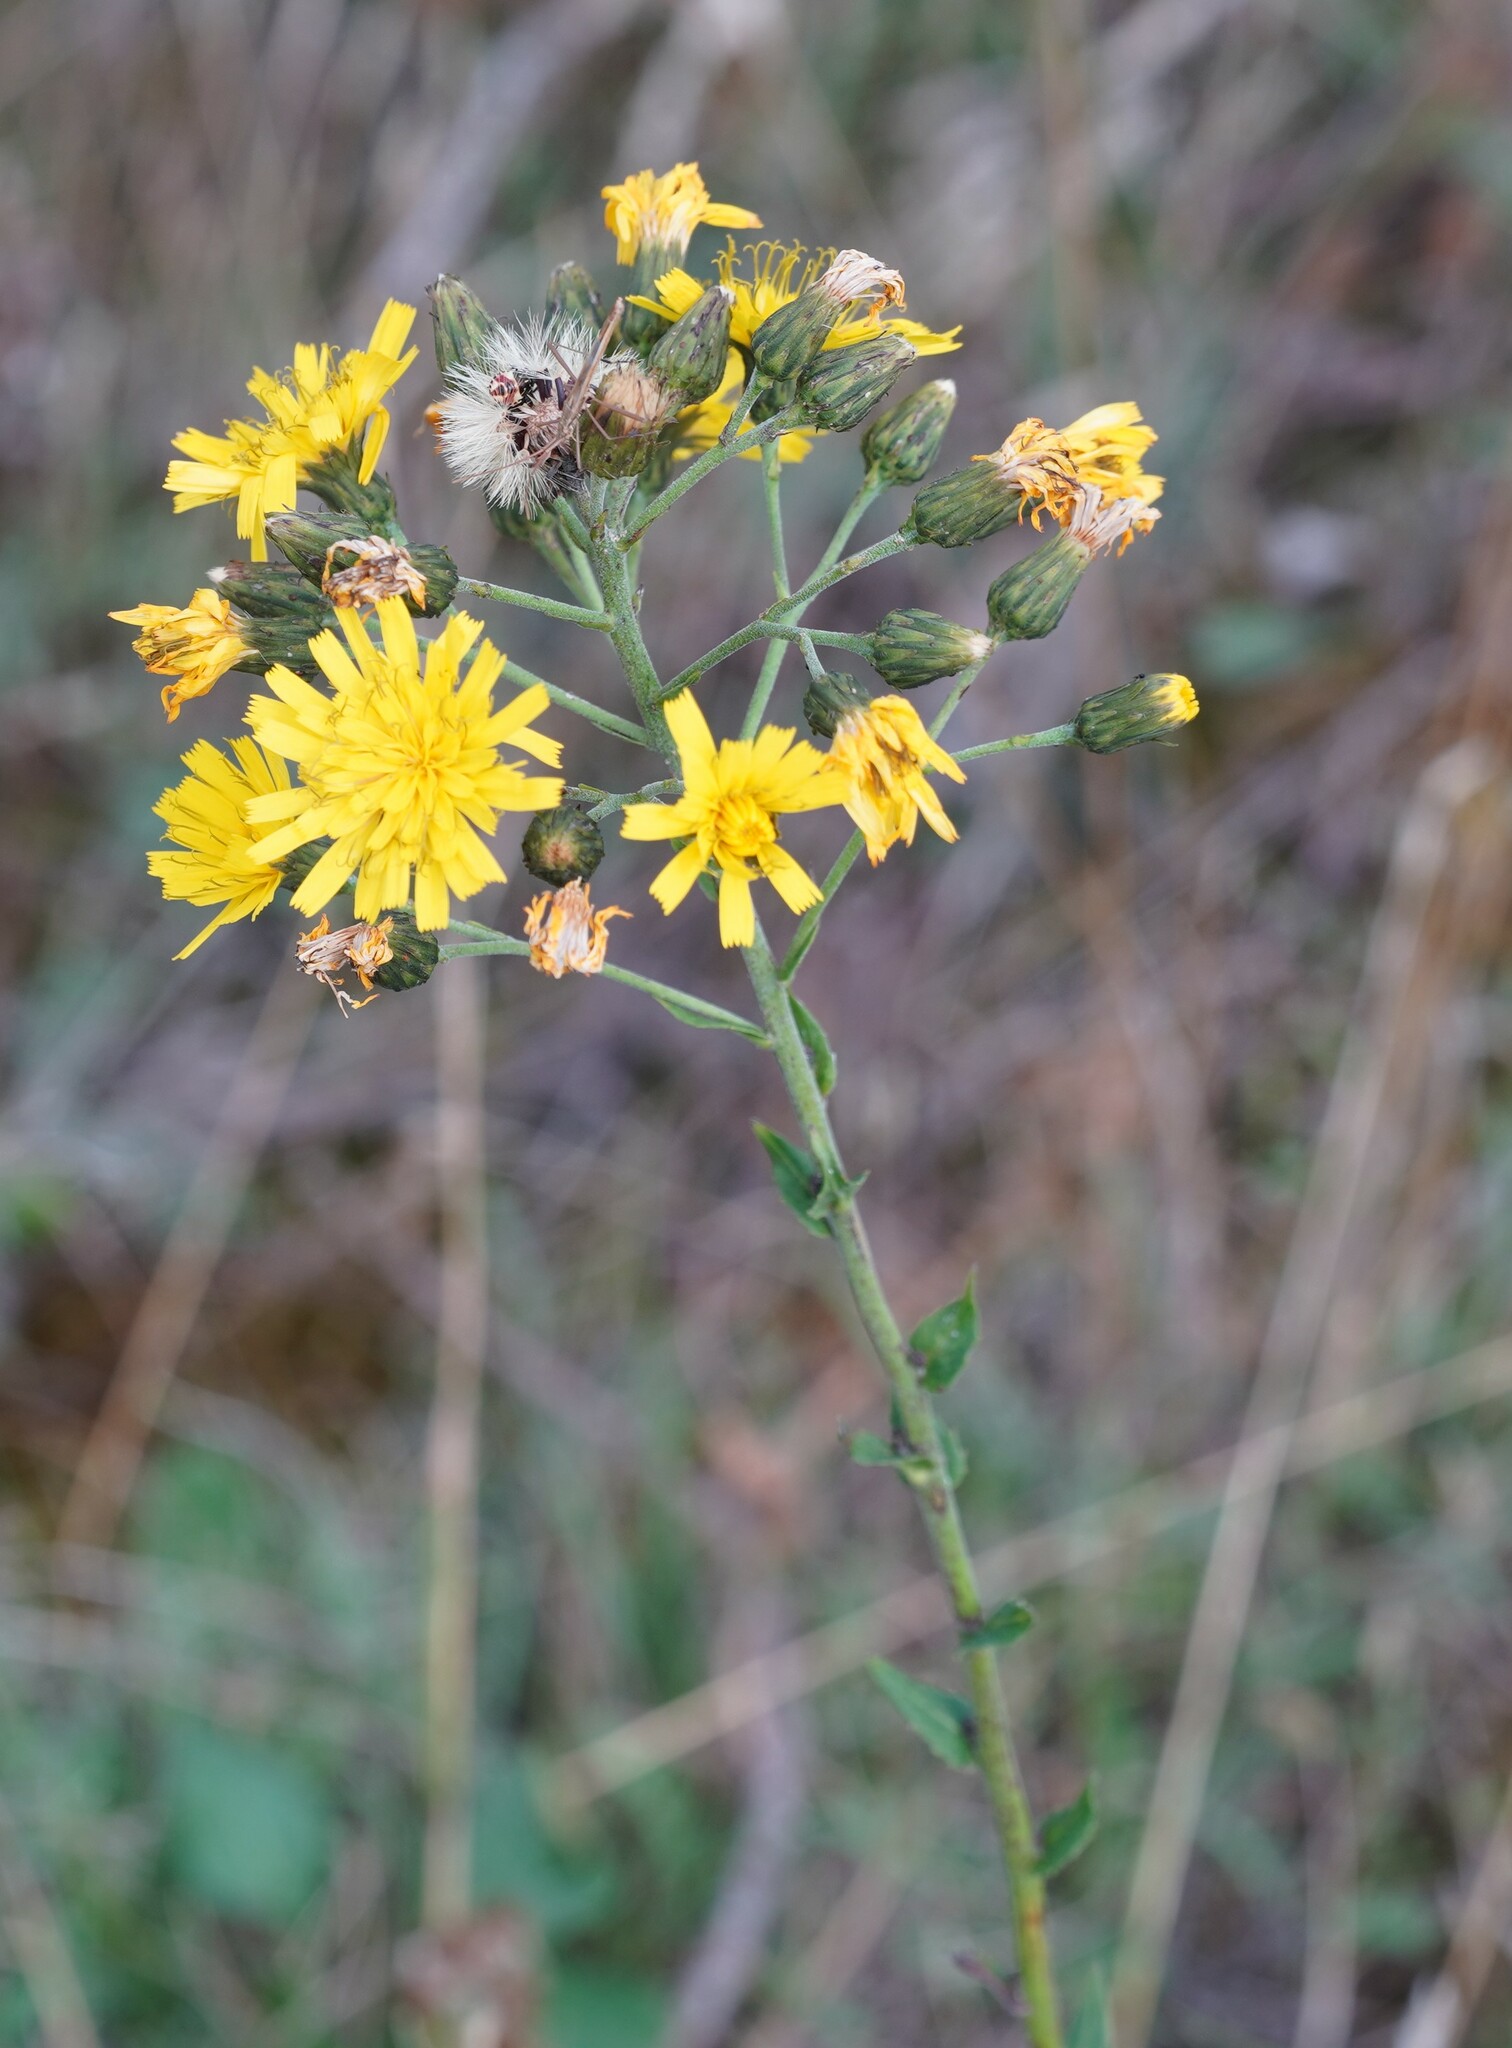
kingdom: Plantae
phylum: Tracheophyta
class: Magnoliopsida
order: Asterales
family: Asteraceae
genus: Hieracium
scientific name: Hieracium sabaudum
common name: New england hawkweed
